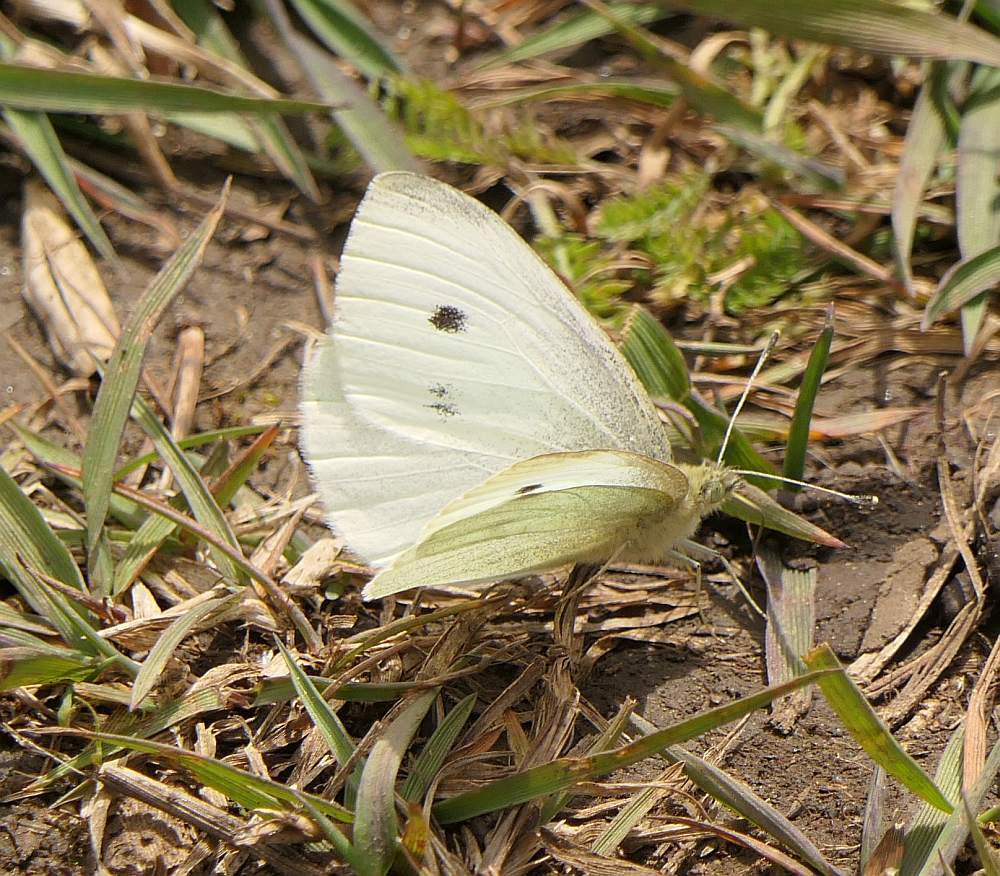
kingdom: Animalia
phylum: Arthropoda
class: Insecta
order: Lepidoptera
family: Pieridae
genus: Pieris
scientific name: Pieris rapae
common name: Small white
